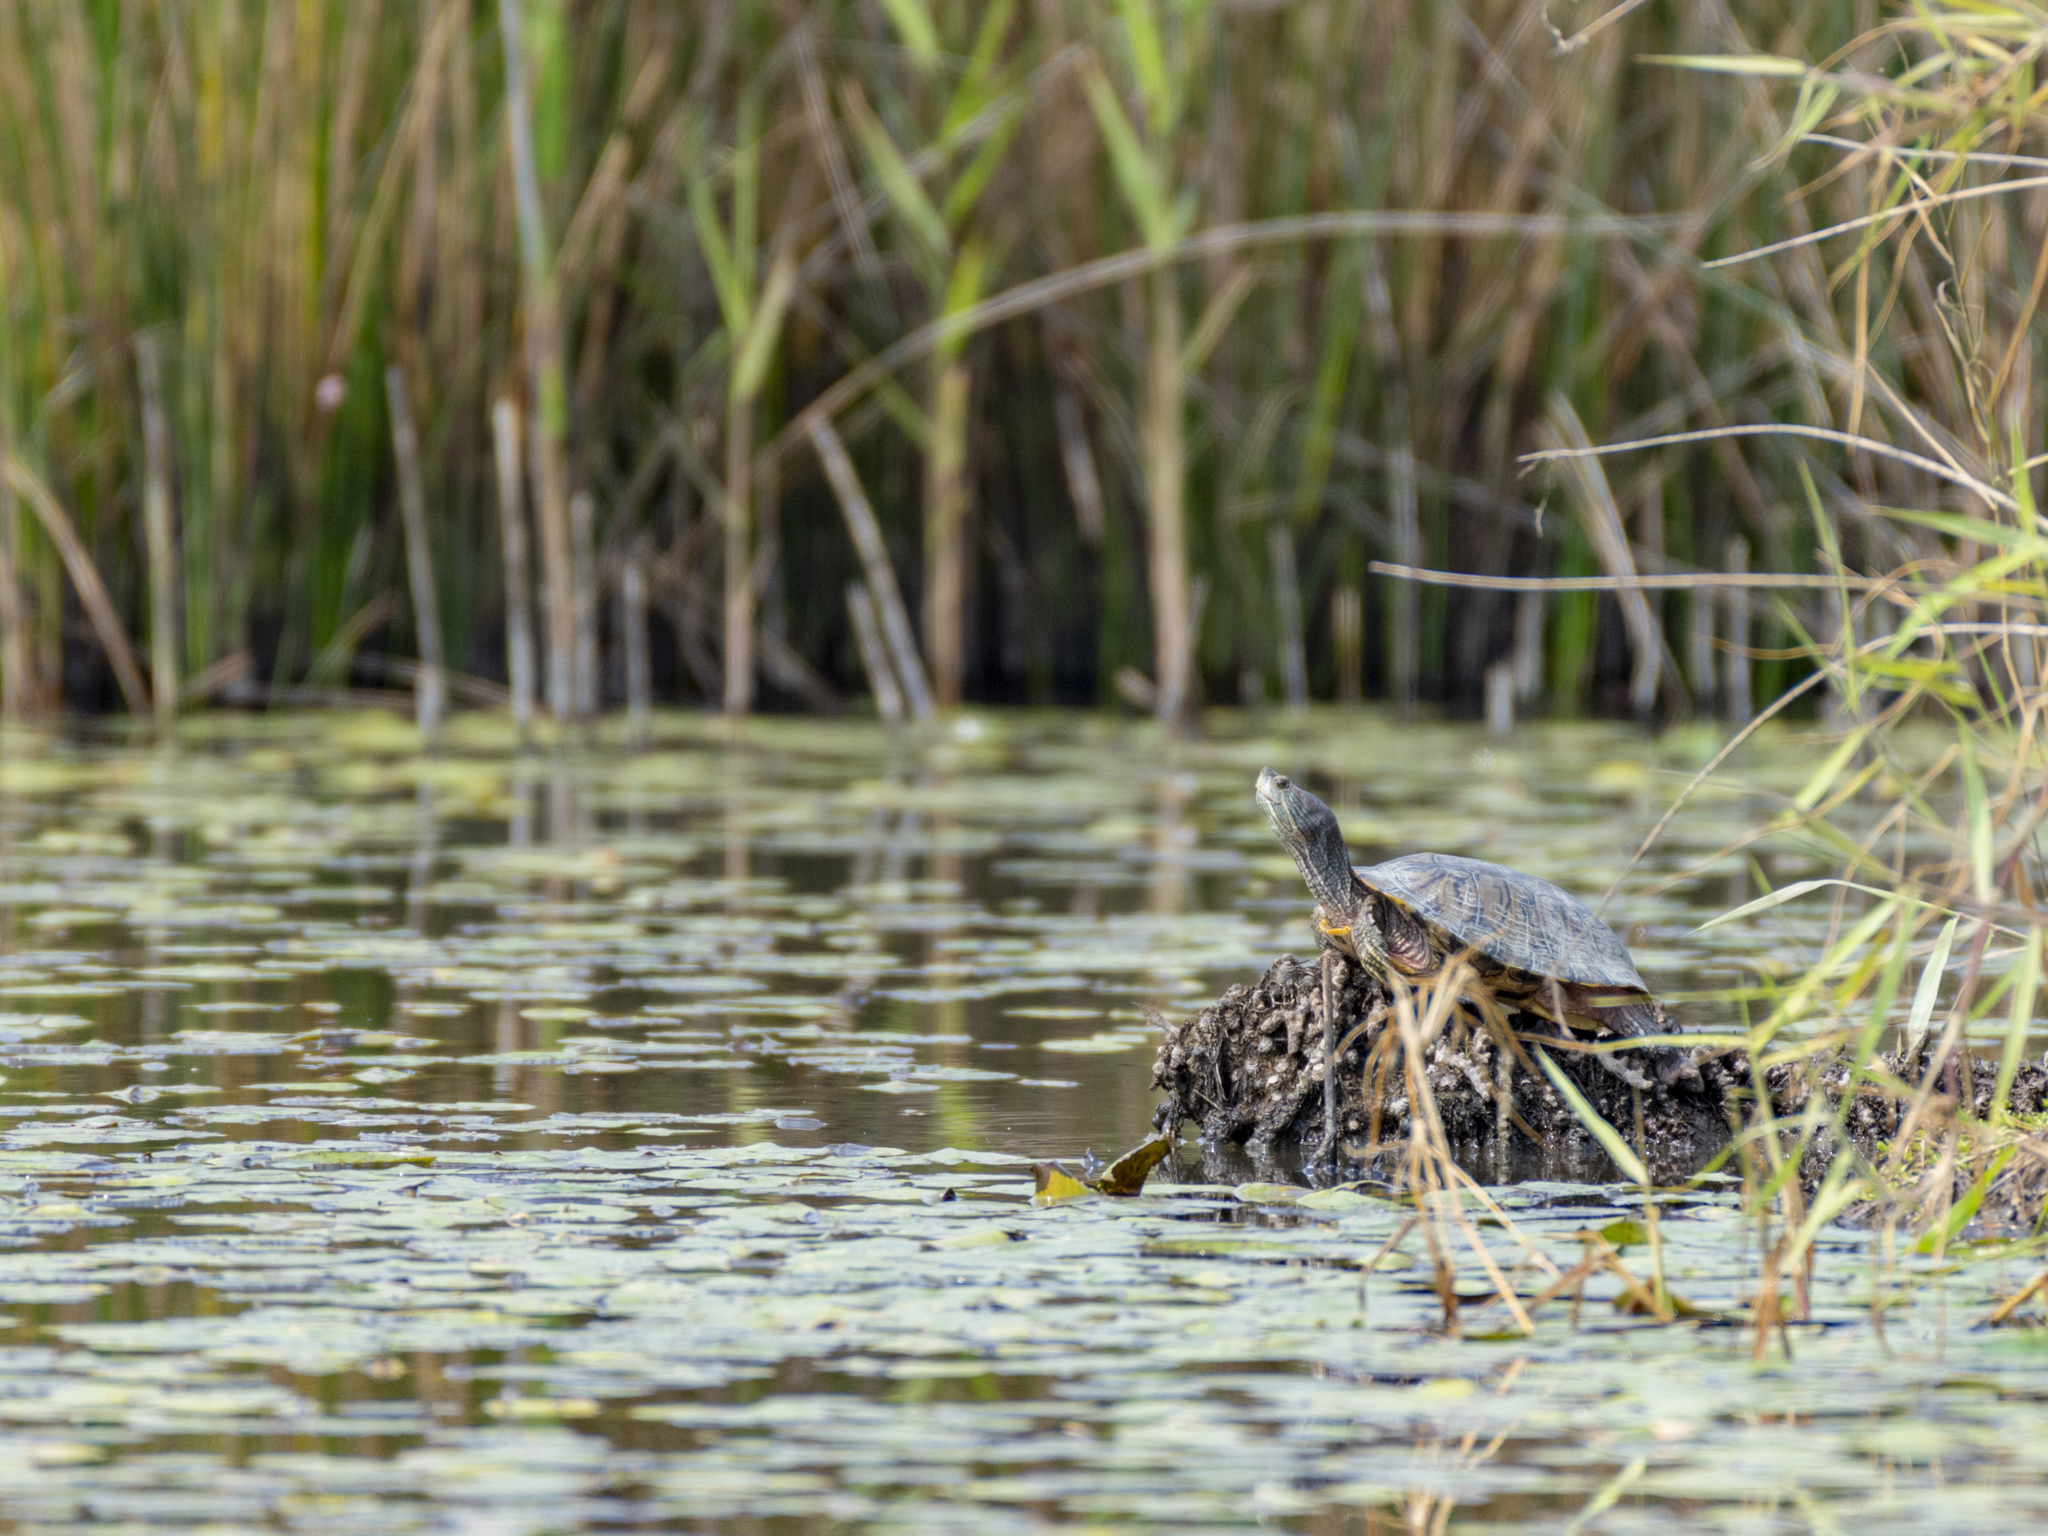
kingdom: Animalia
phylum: Chordata
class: Testudines
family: Emydidae
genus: Trachemys
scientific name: Trachemys scripta
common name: Slider
